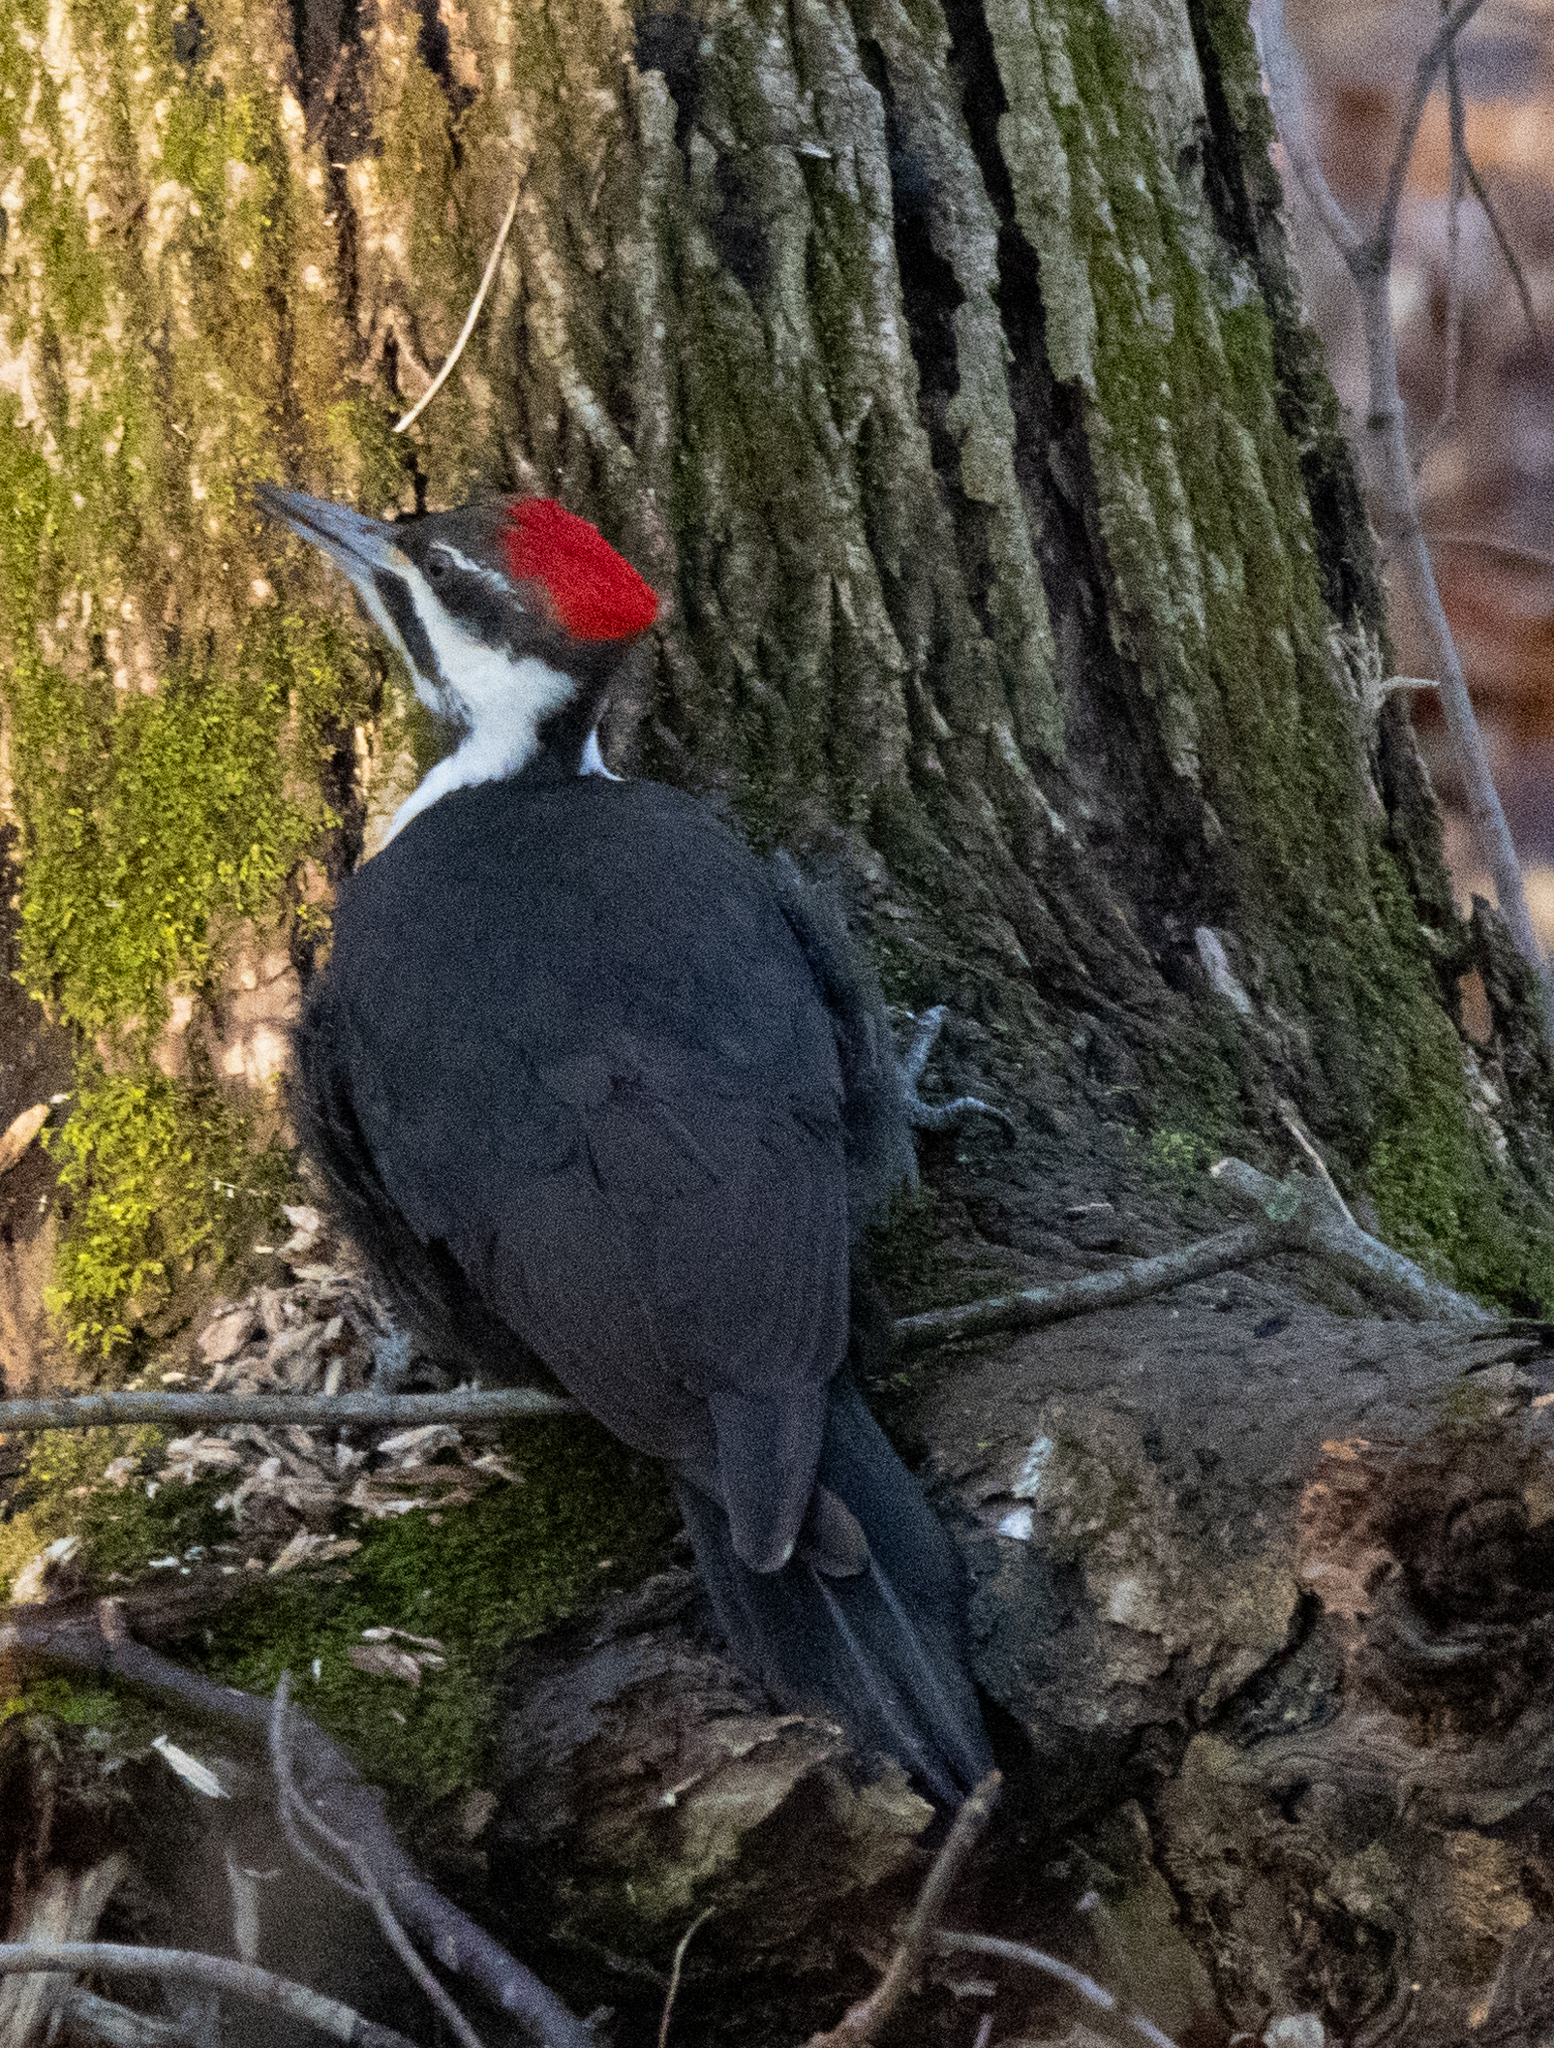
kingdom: Animalia
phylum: Chordata
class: Aves
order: Piciformes
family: Picidae
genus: Dryocopus
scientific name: Dryocopus pileatus
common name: Pileated woodpecker
